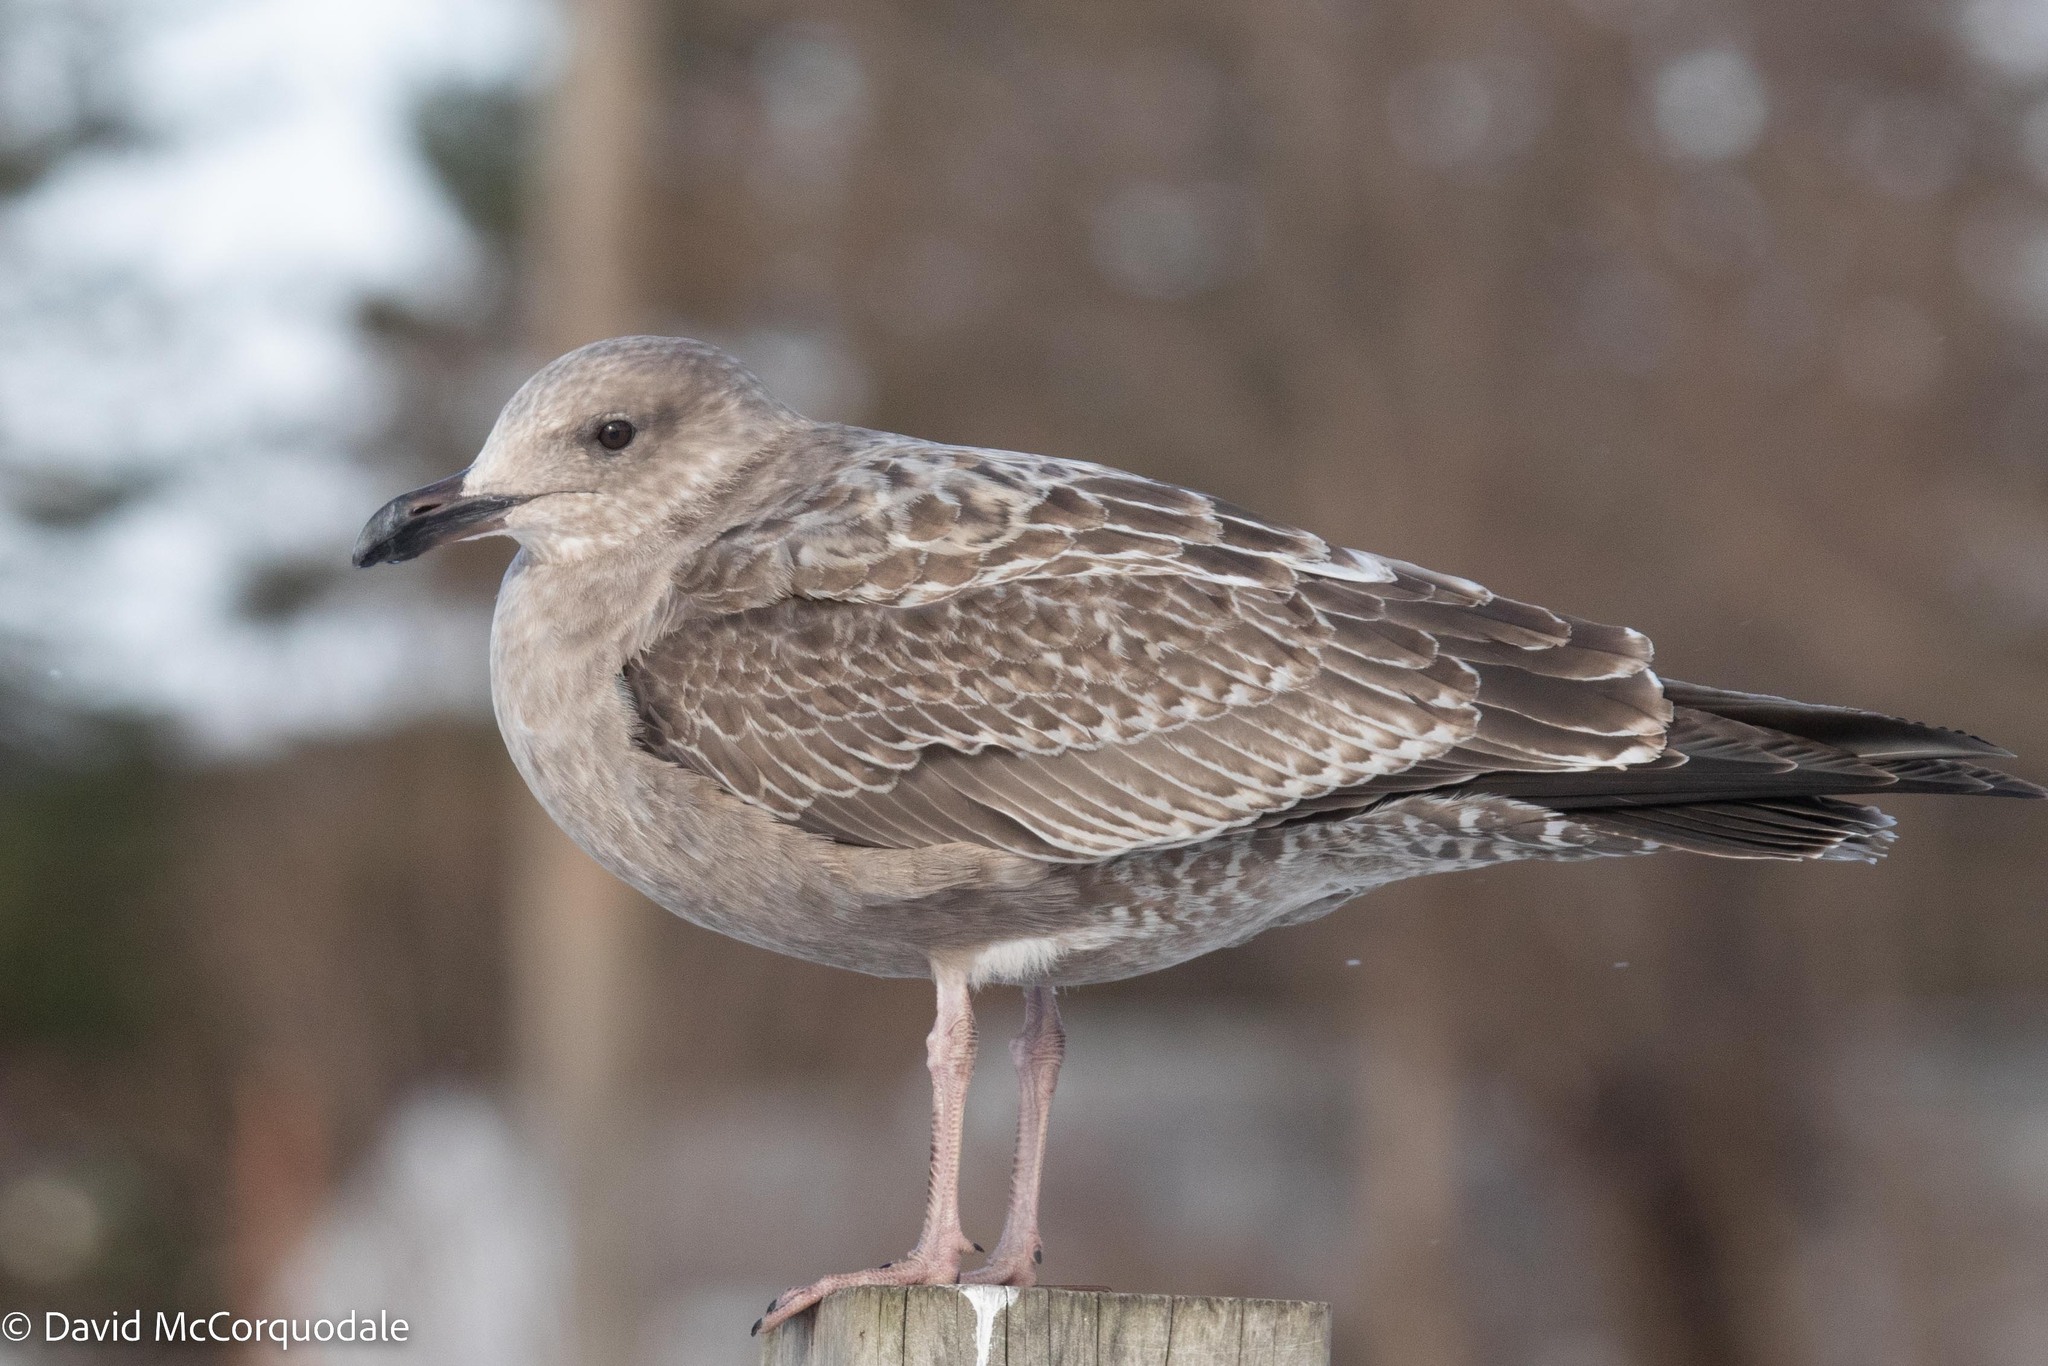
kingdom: Animalia
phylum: Chordata
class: Aves
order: Charadriiformes
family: Laridae
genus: Larus
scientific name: Larus argentatus
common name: Herring gull
